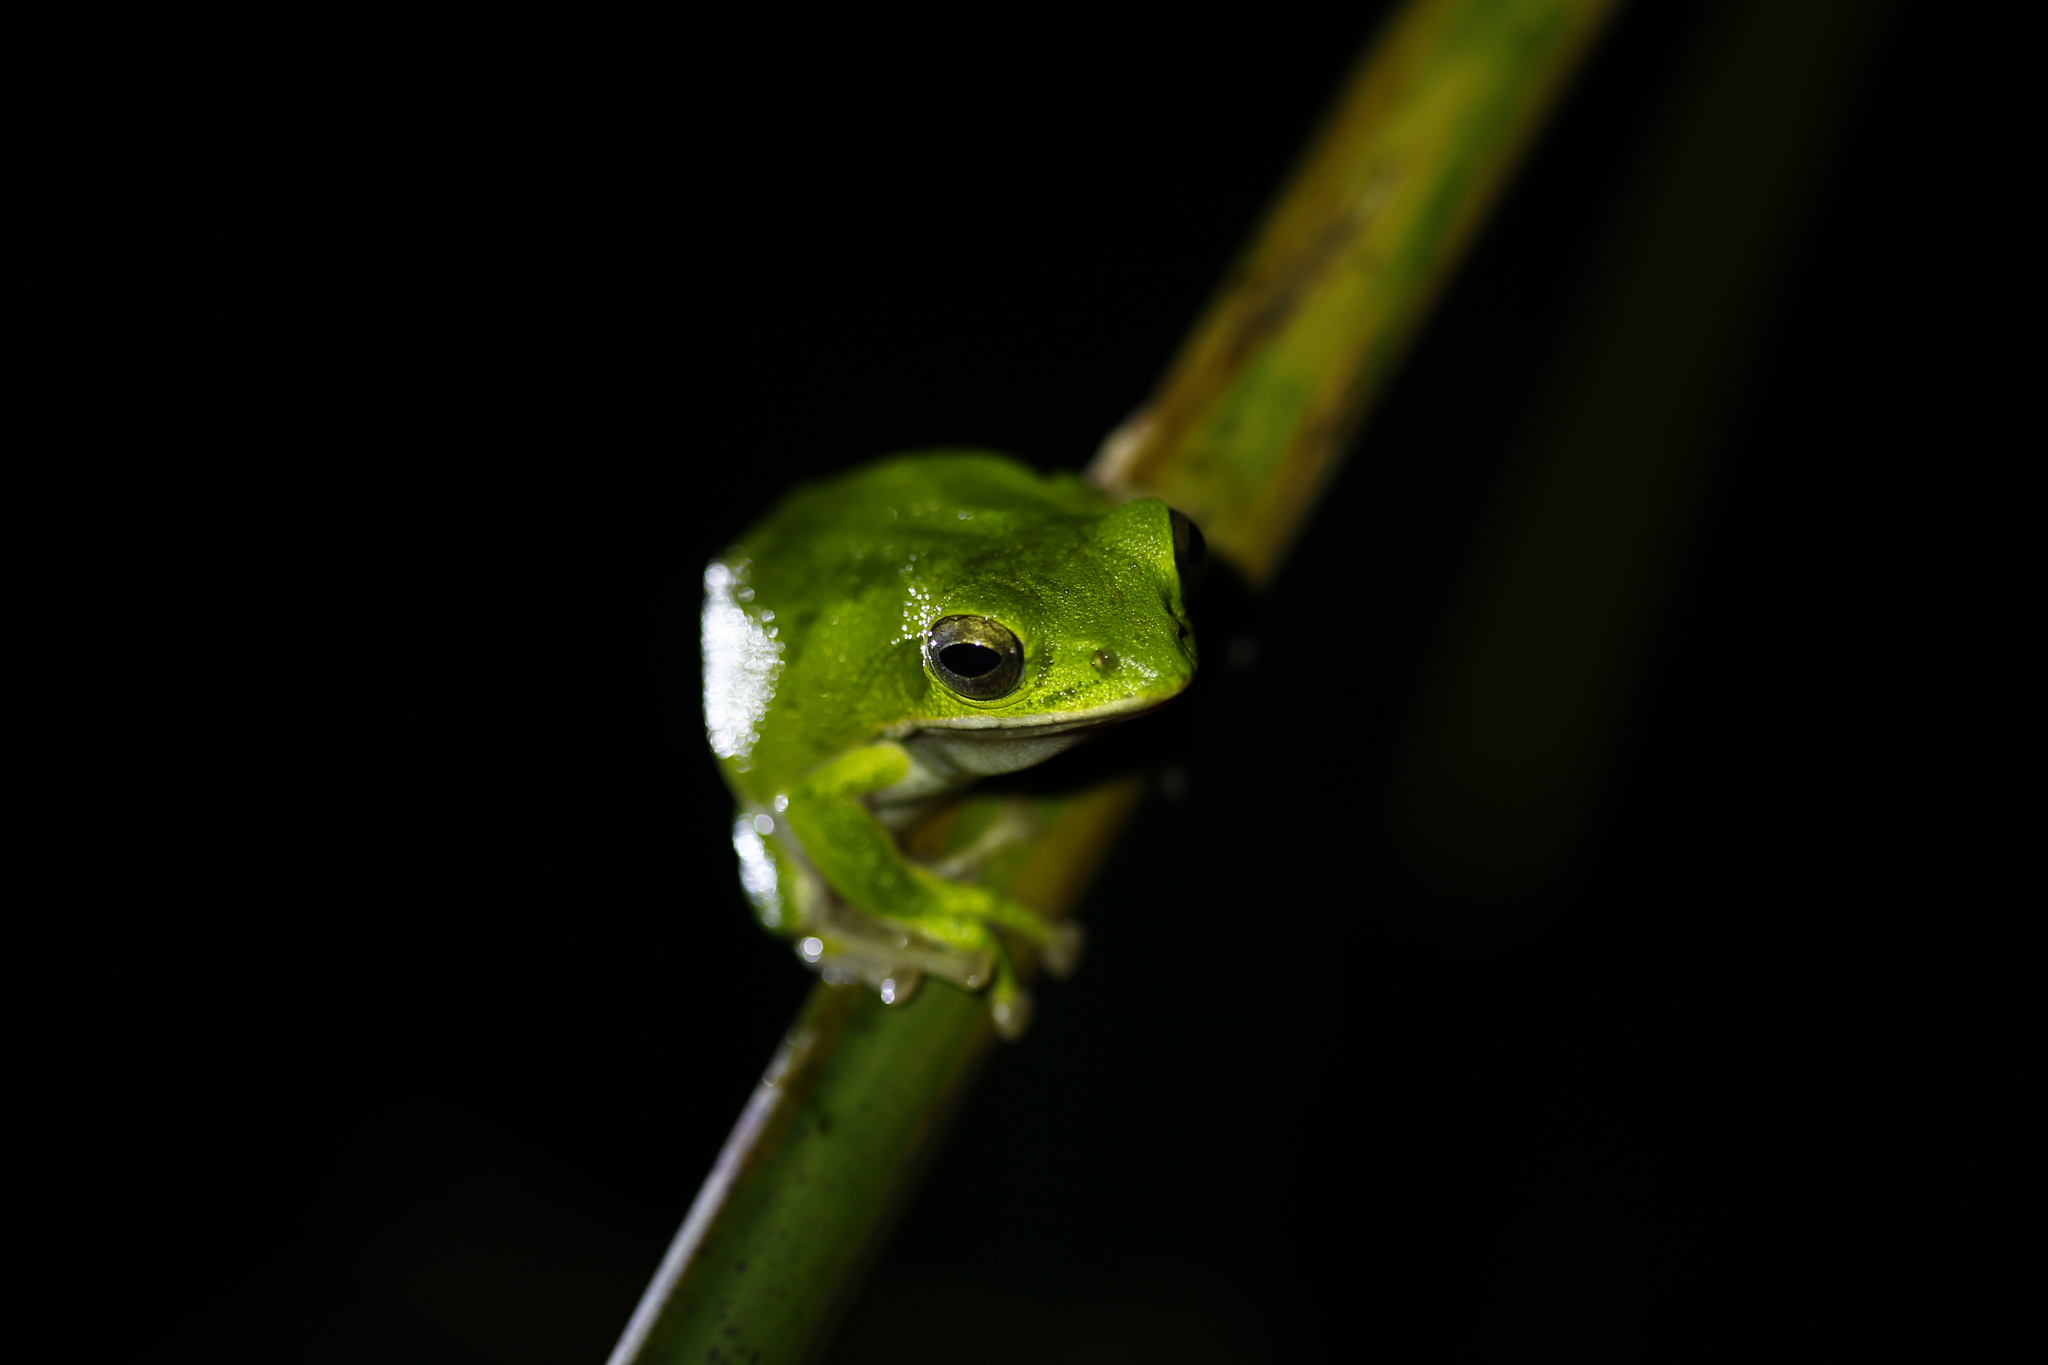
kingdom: Animalia
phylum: Chordata
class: Amphibia
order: Anura
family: Rhacophoridae
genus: Zhangixalus
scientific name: Zhangixalus arvalis
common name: Farmland green treefrog
